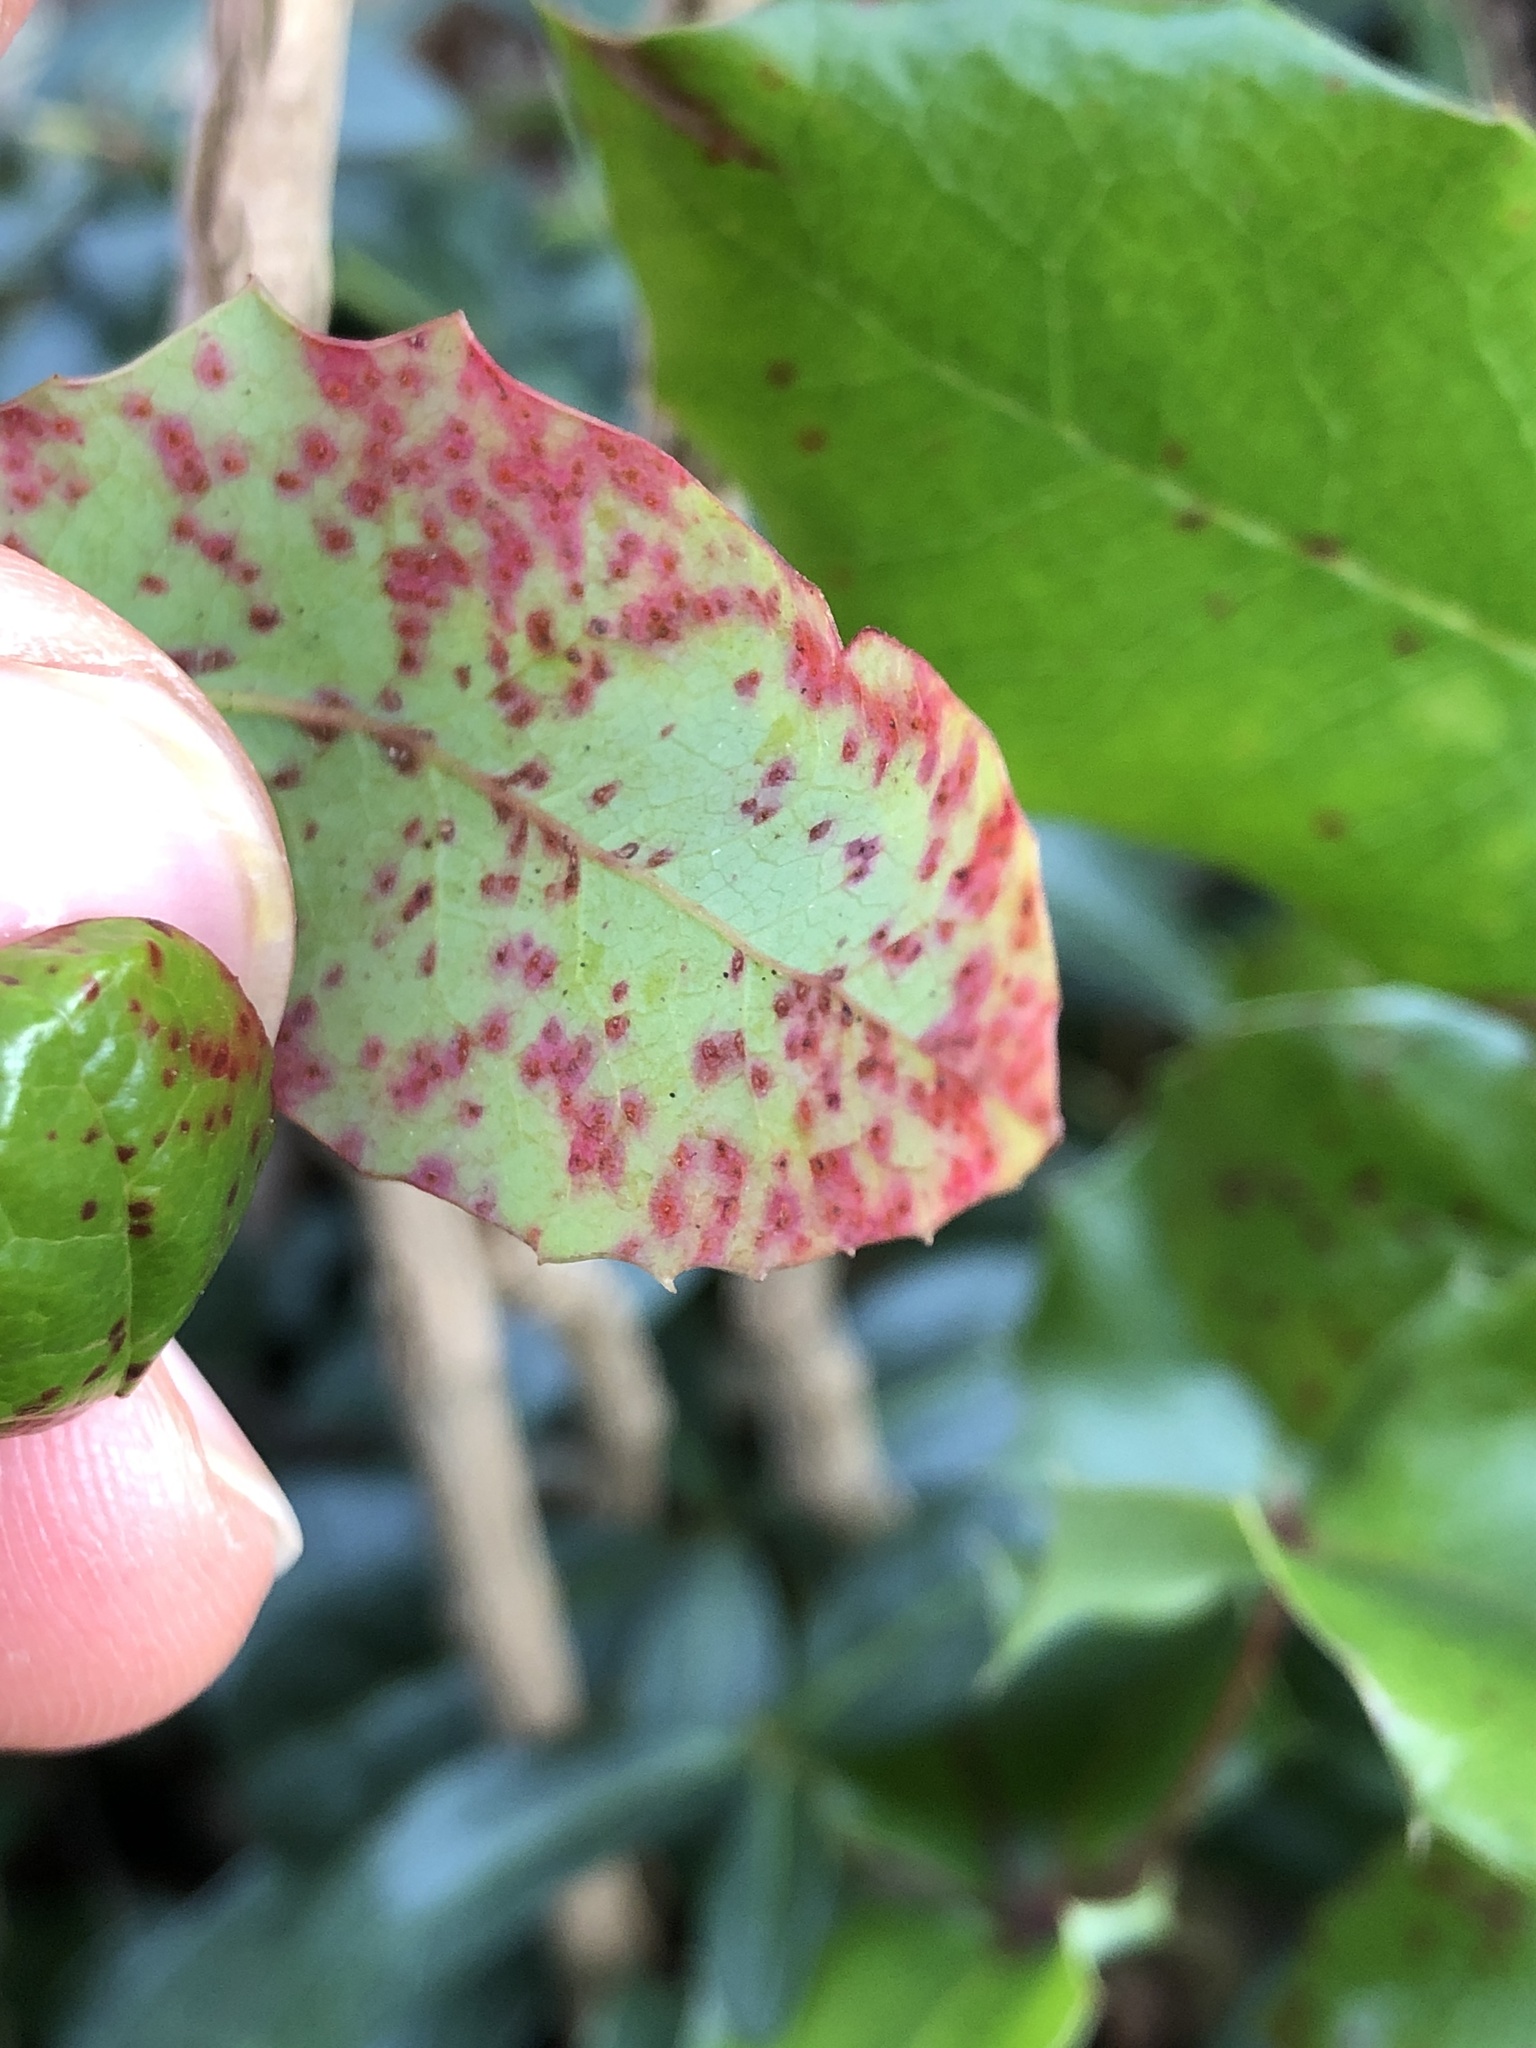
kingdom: Fungi
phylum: Basidiomycota
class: Pucciniomycetes
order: Pucciniales
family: Pucciniaceae
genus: Cumminsiella
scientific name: Cumminsiella mirabilissima
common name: Mahonia rust
